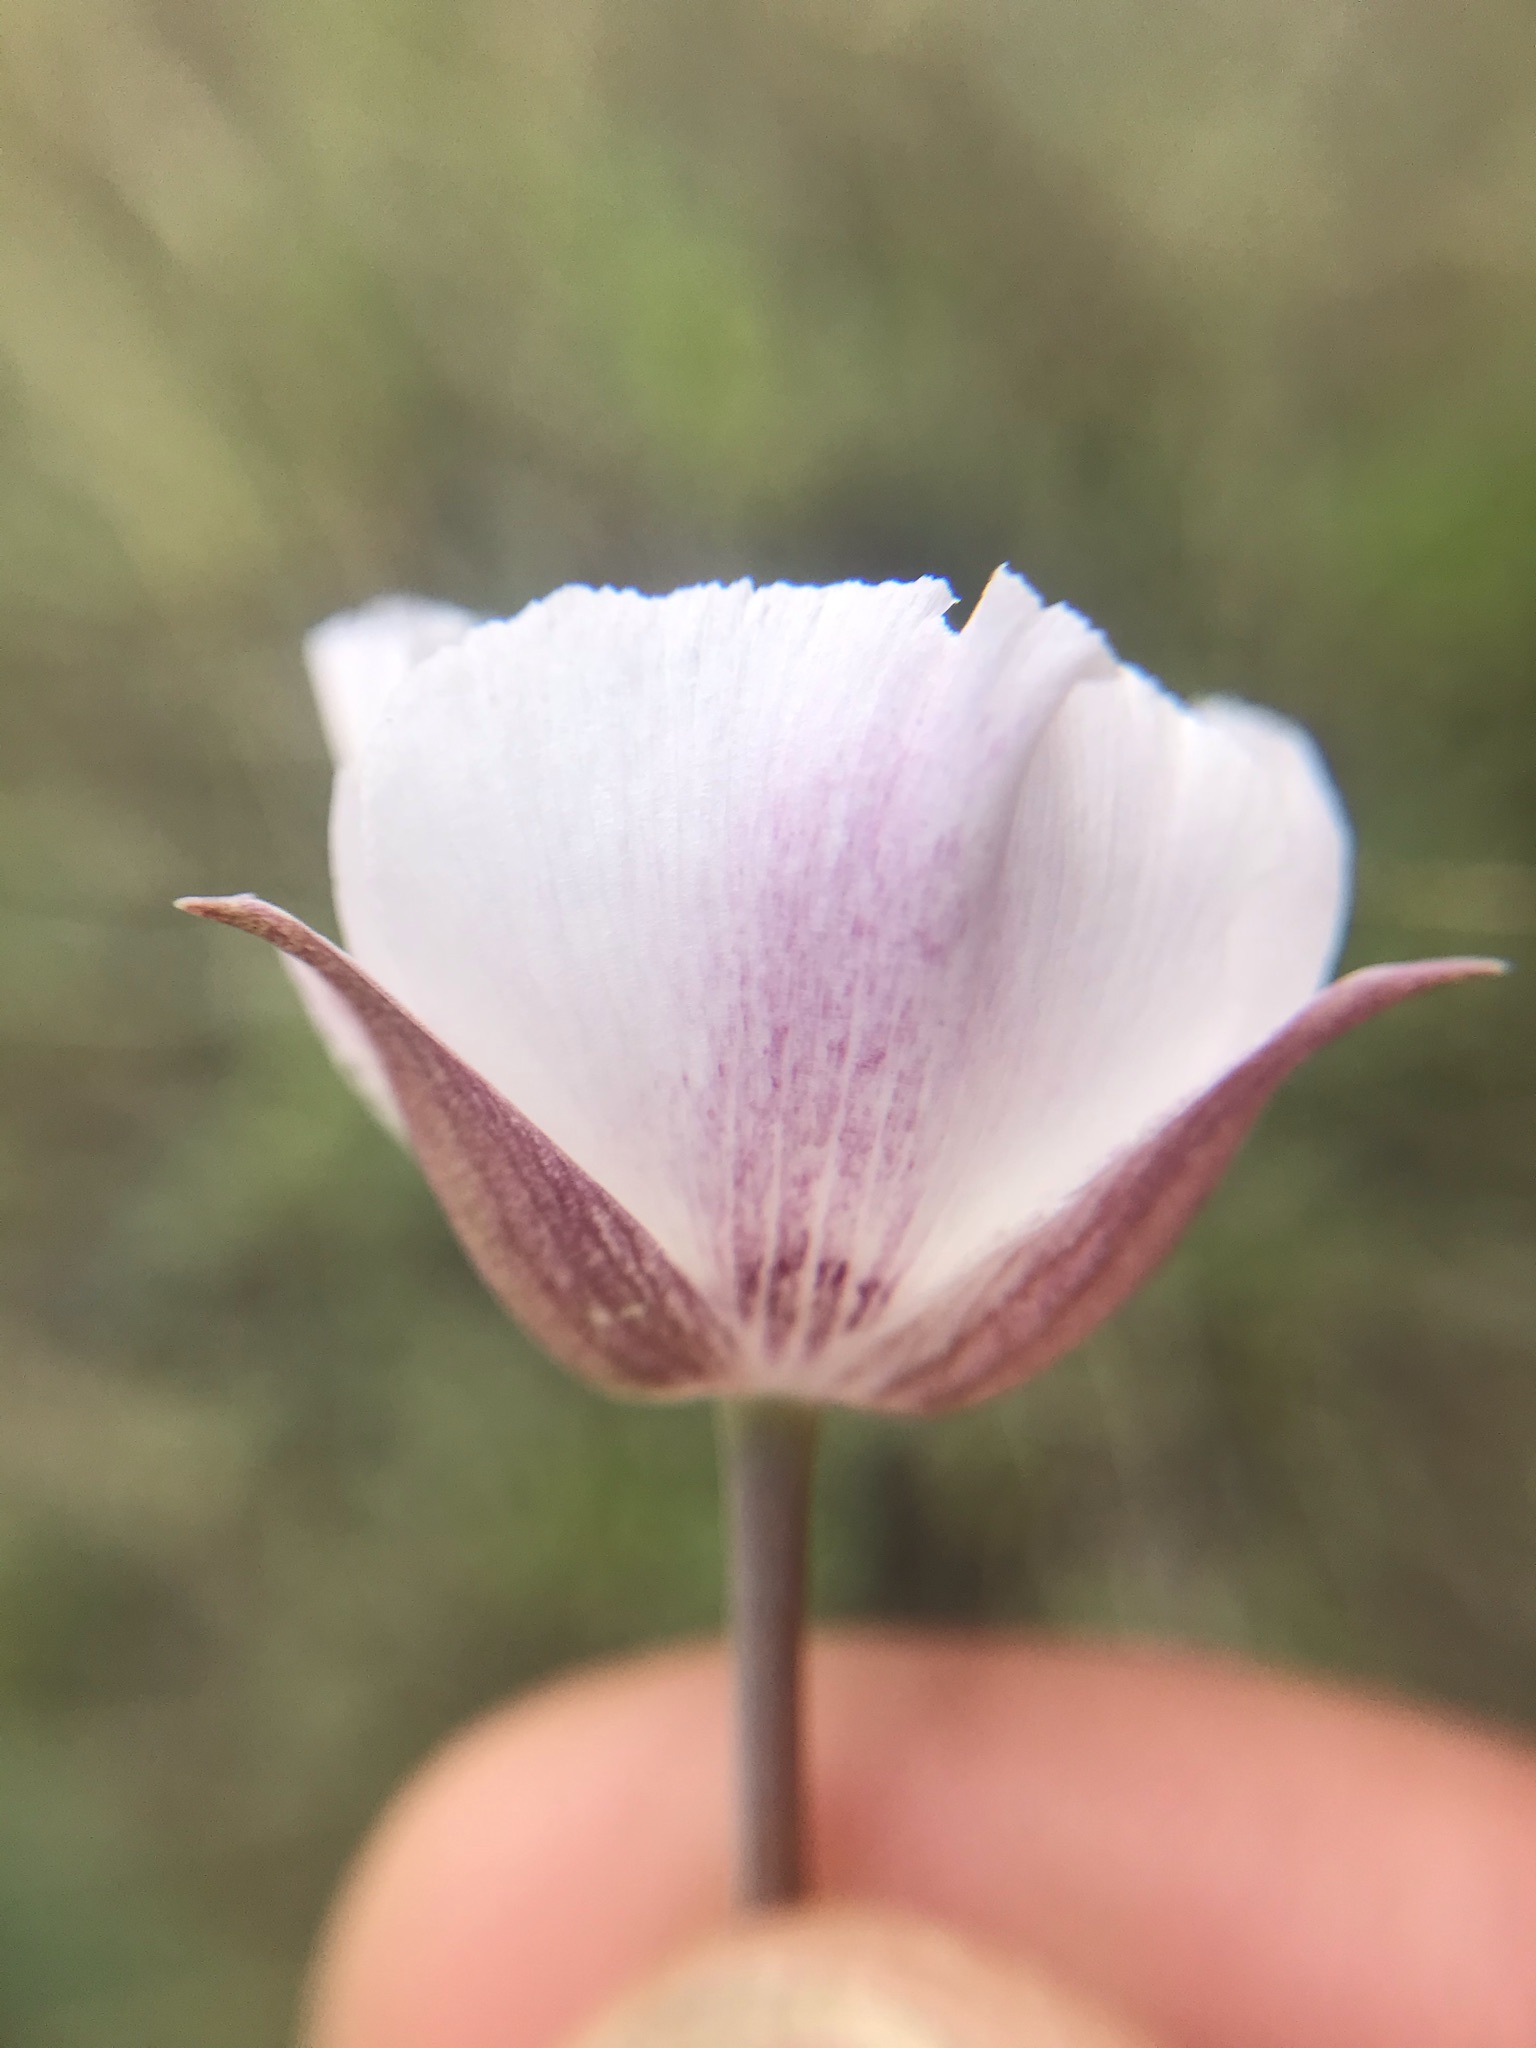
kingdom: Plantae
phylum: Tracheophyta
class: Liliopsida
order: Liliales
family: Liliaceae
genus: Calochortus
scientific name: Calochortus umbellatus
